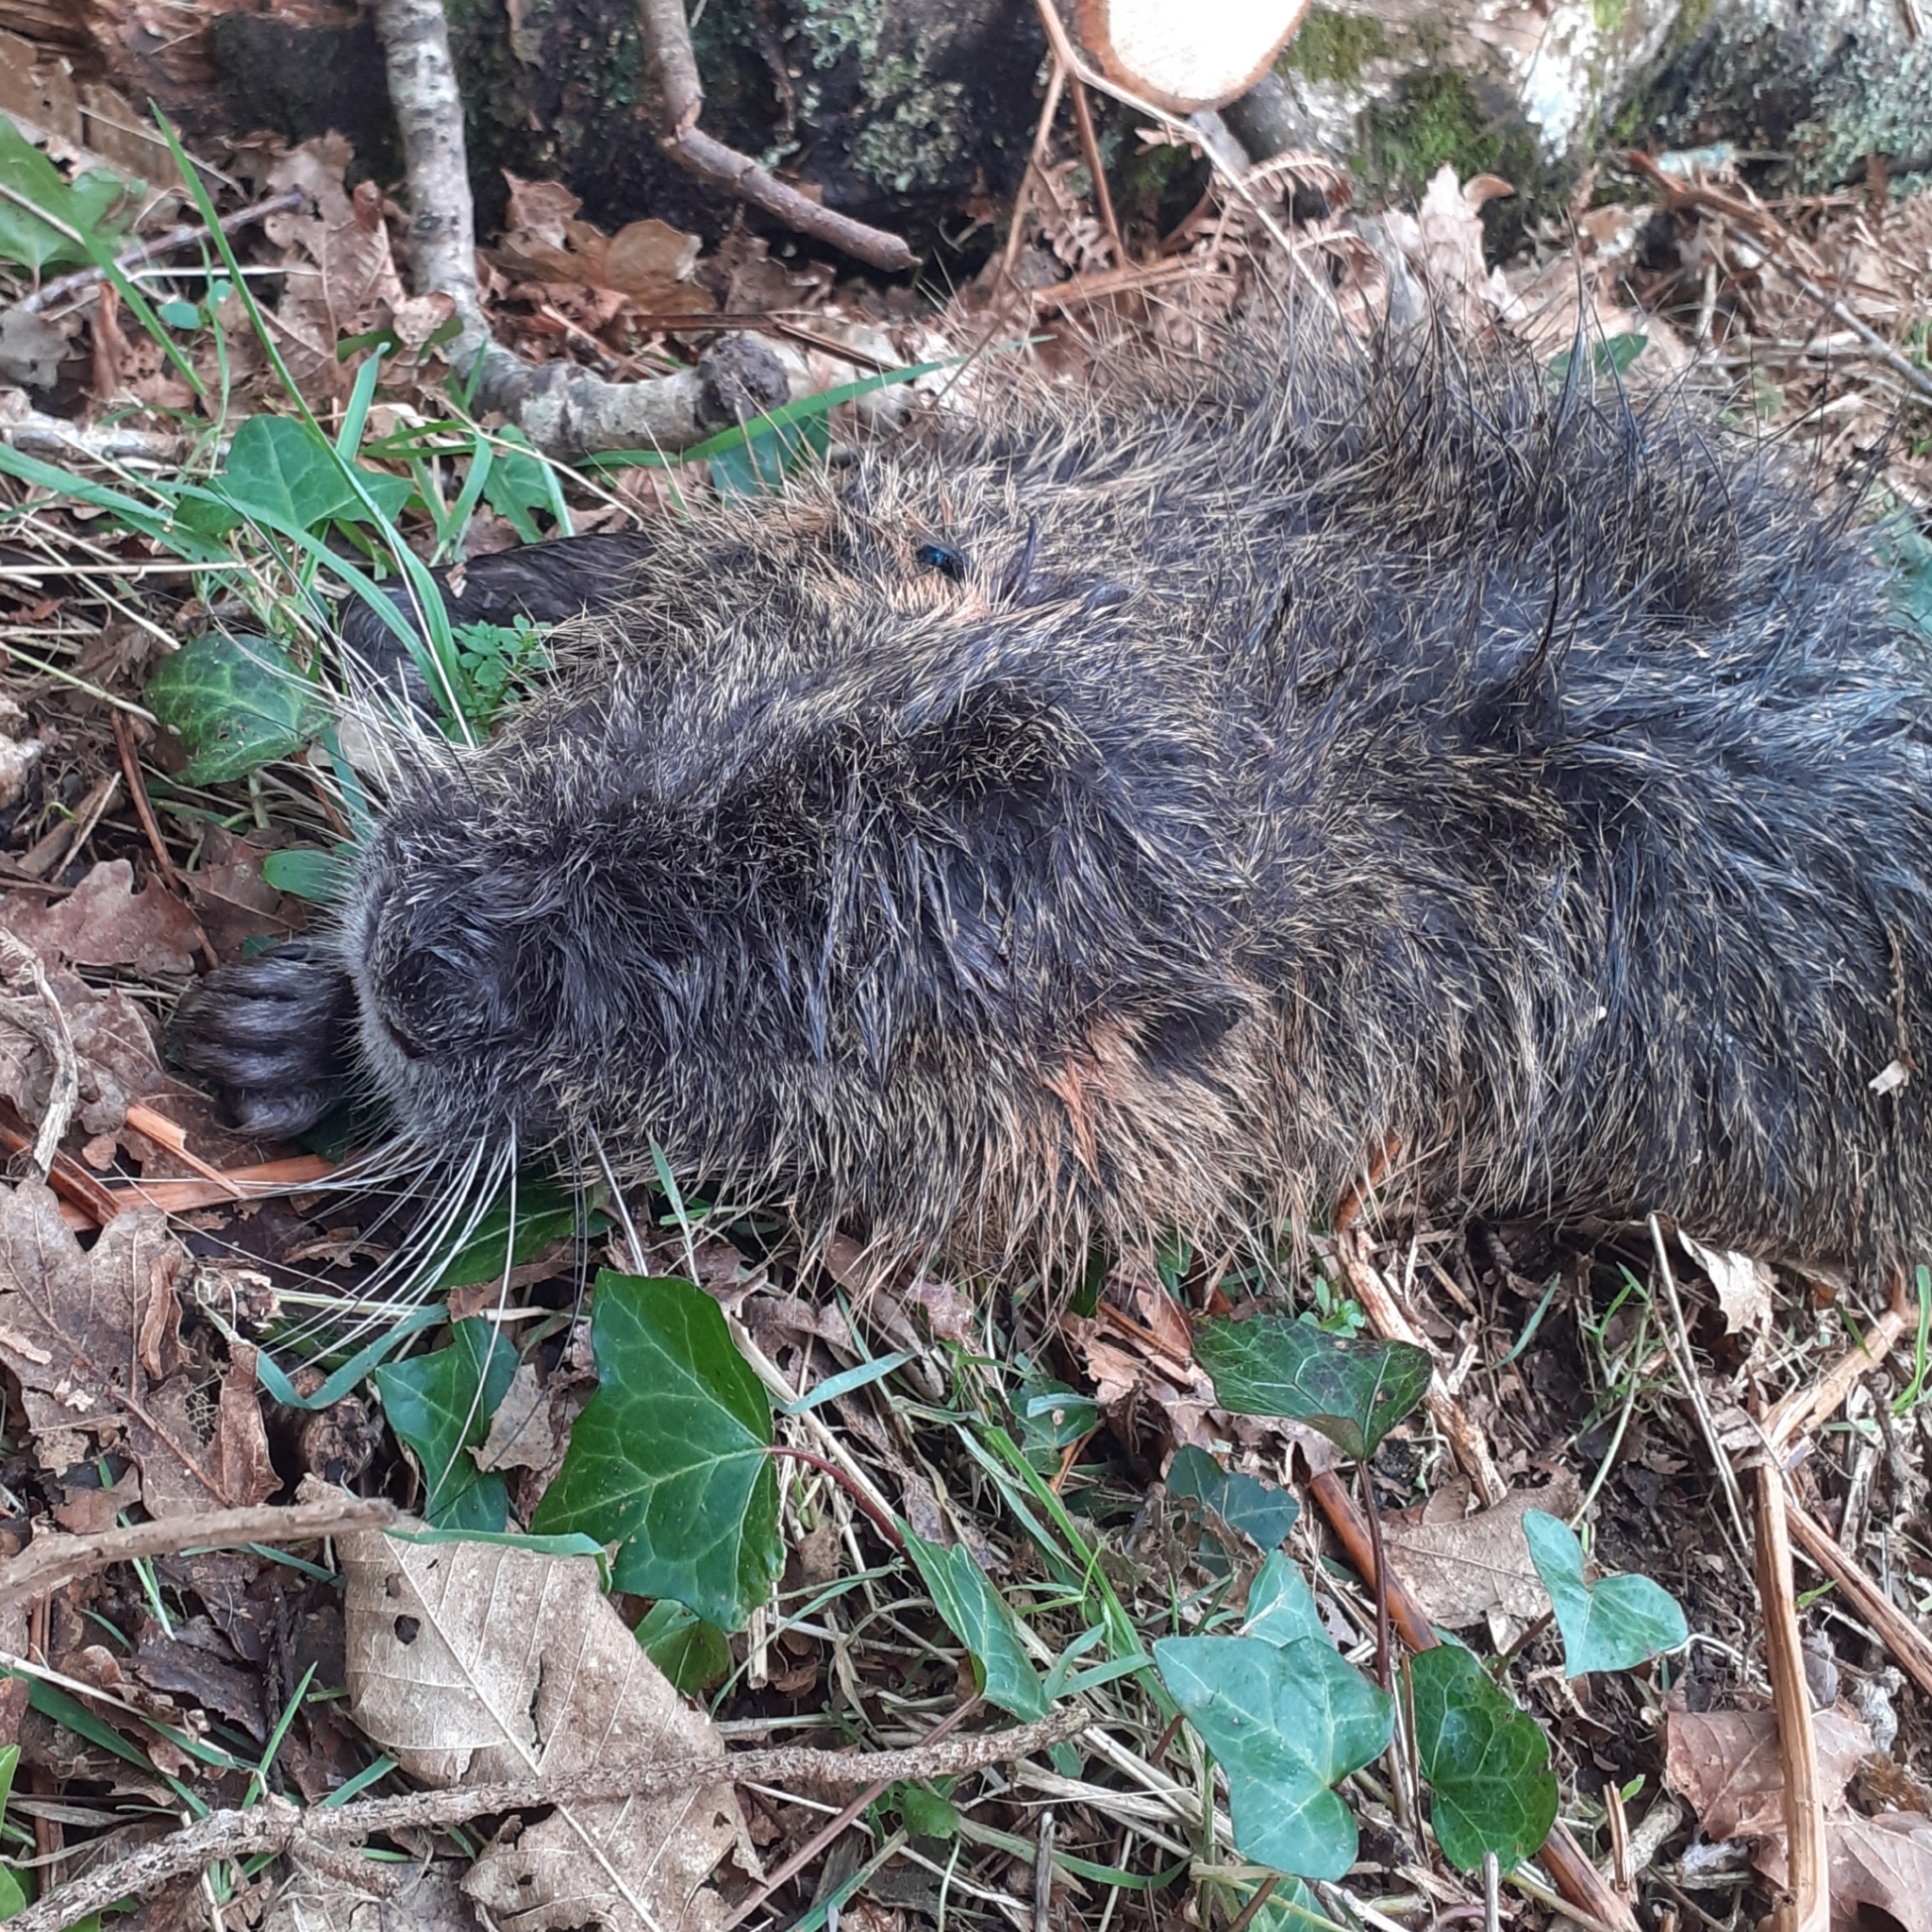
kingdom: Animalia
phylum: Chordata
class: Mammalia
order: Rodentia
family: Myocastoridae
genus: Myocastor
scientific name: Myocastor coypus
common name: Coypu
